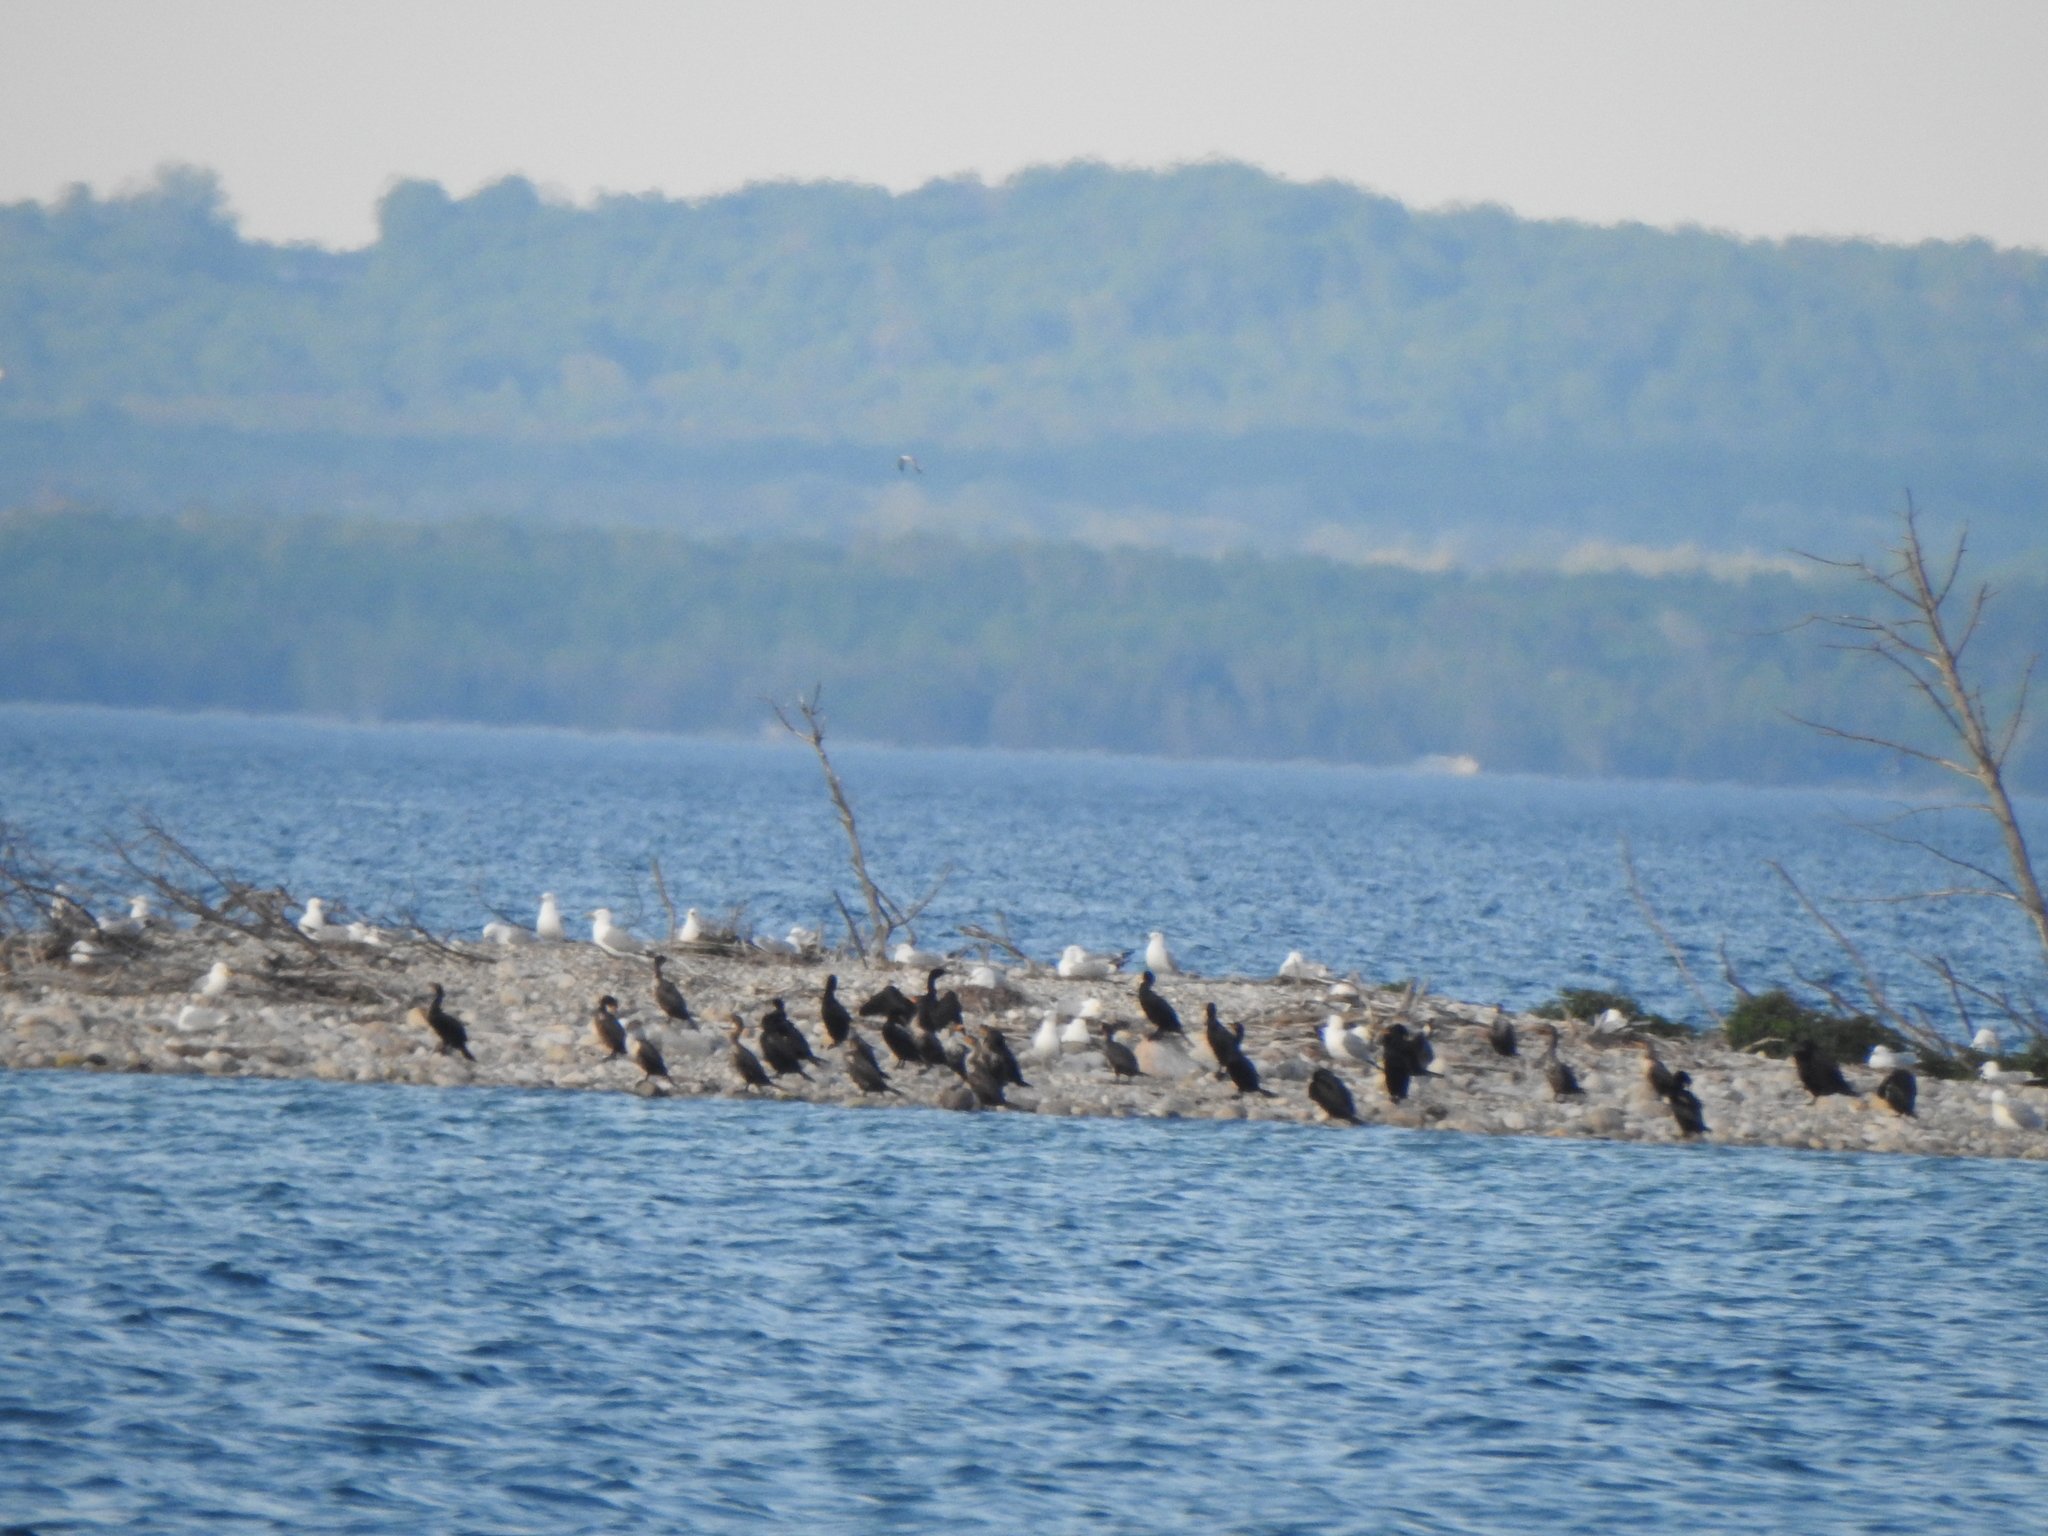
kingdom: Animalia
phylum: Chordata
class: Aves
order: Suliformes
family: Phalacrocoracidae
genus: Phalacrocorax
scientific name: Phalacrocorax auritus
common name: Double-crested cormorant
